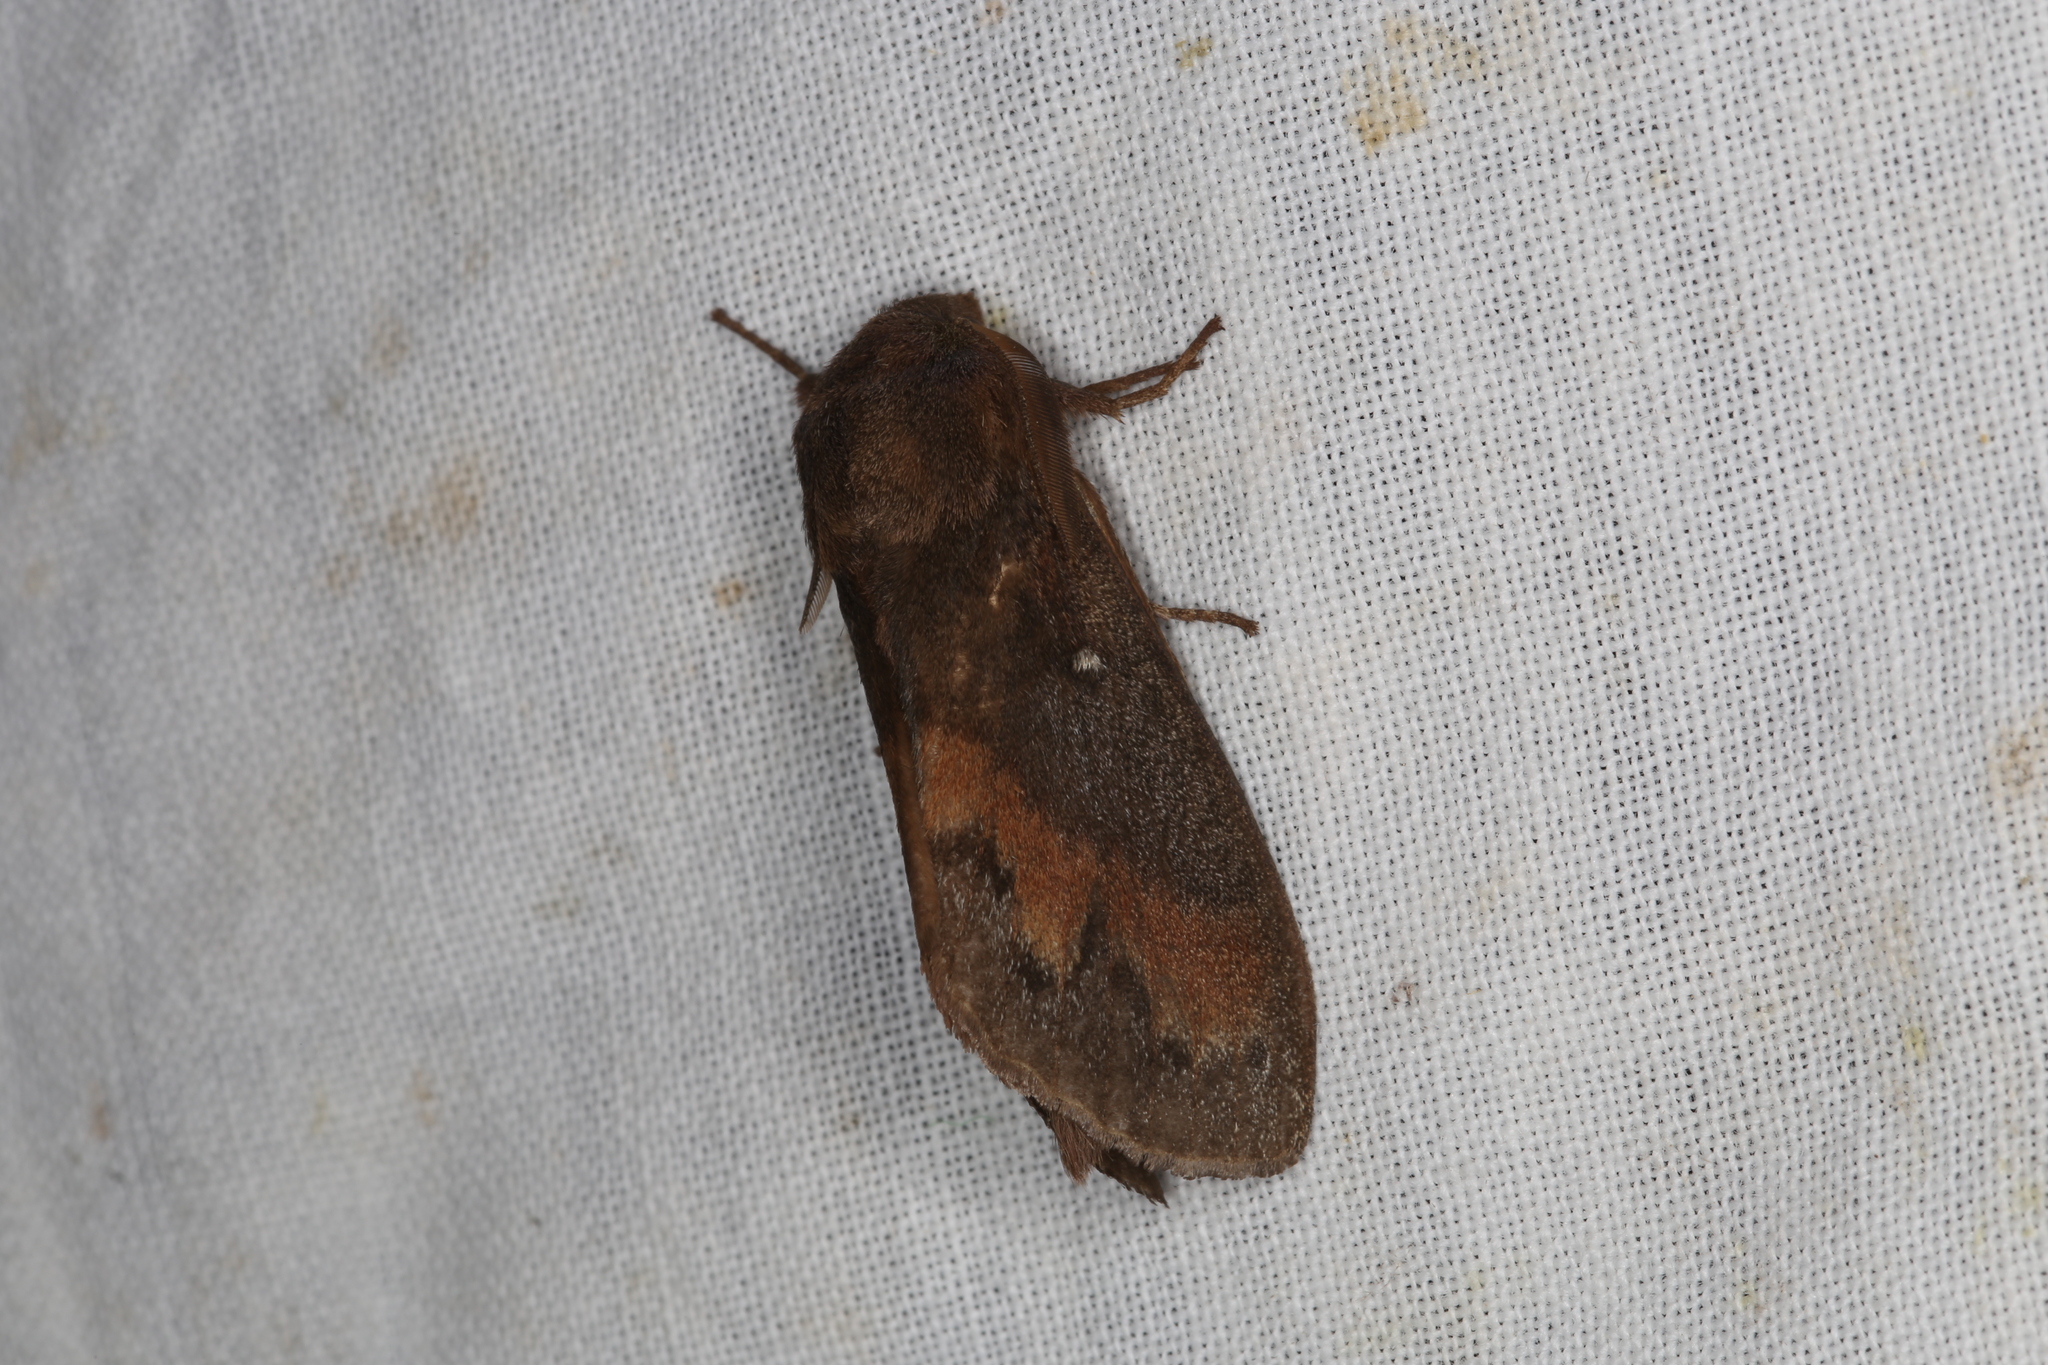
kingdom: Animalia
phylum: Arthropoda
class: Insecta
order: Lepidoptera
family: Lasiocampidae
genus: Dendrolimus
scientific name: Dendrolimus pini
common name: Pine-tree lappet
